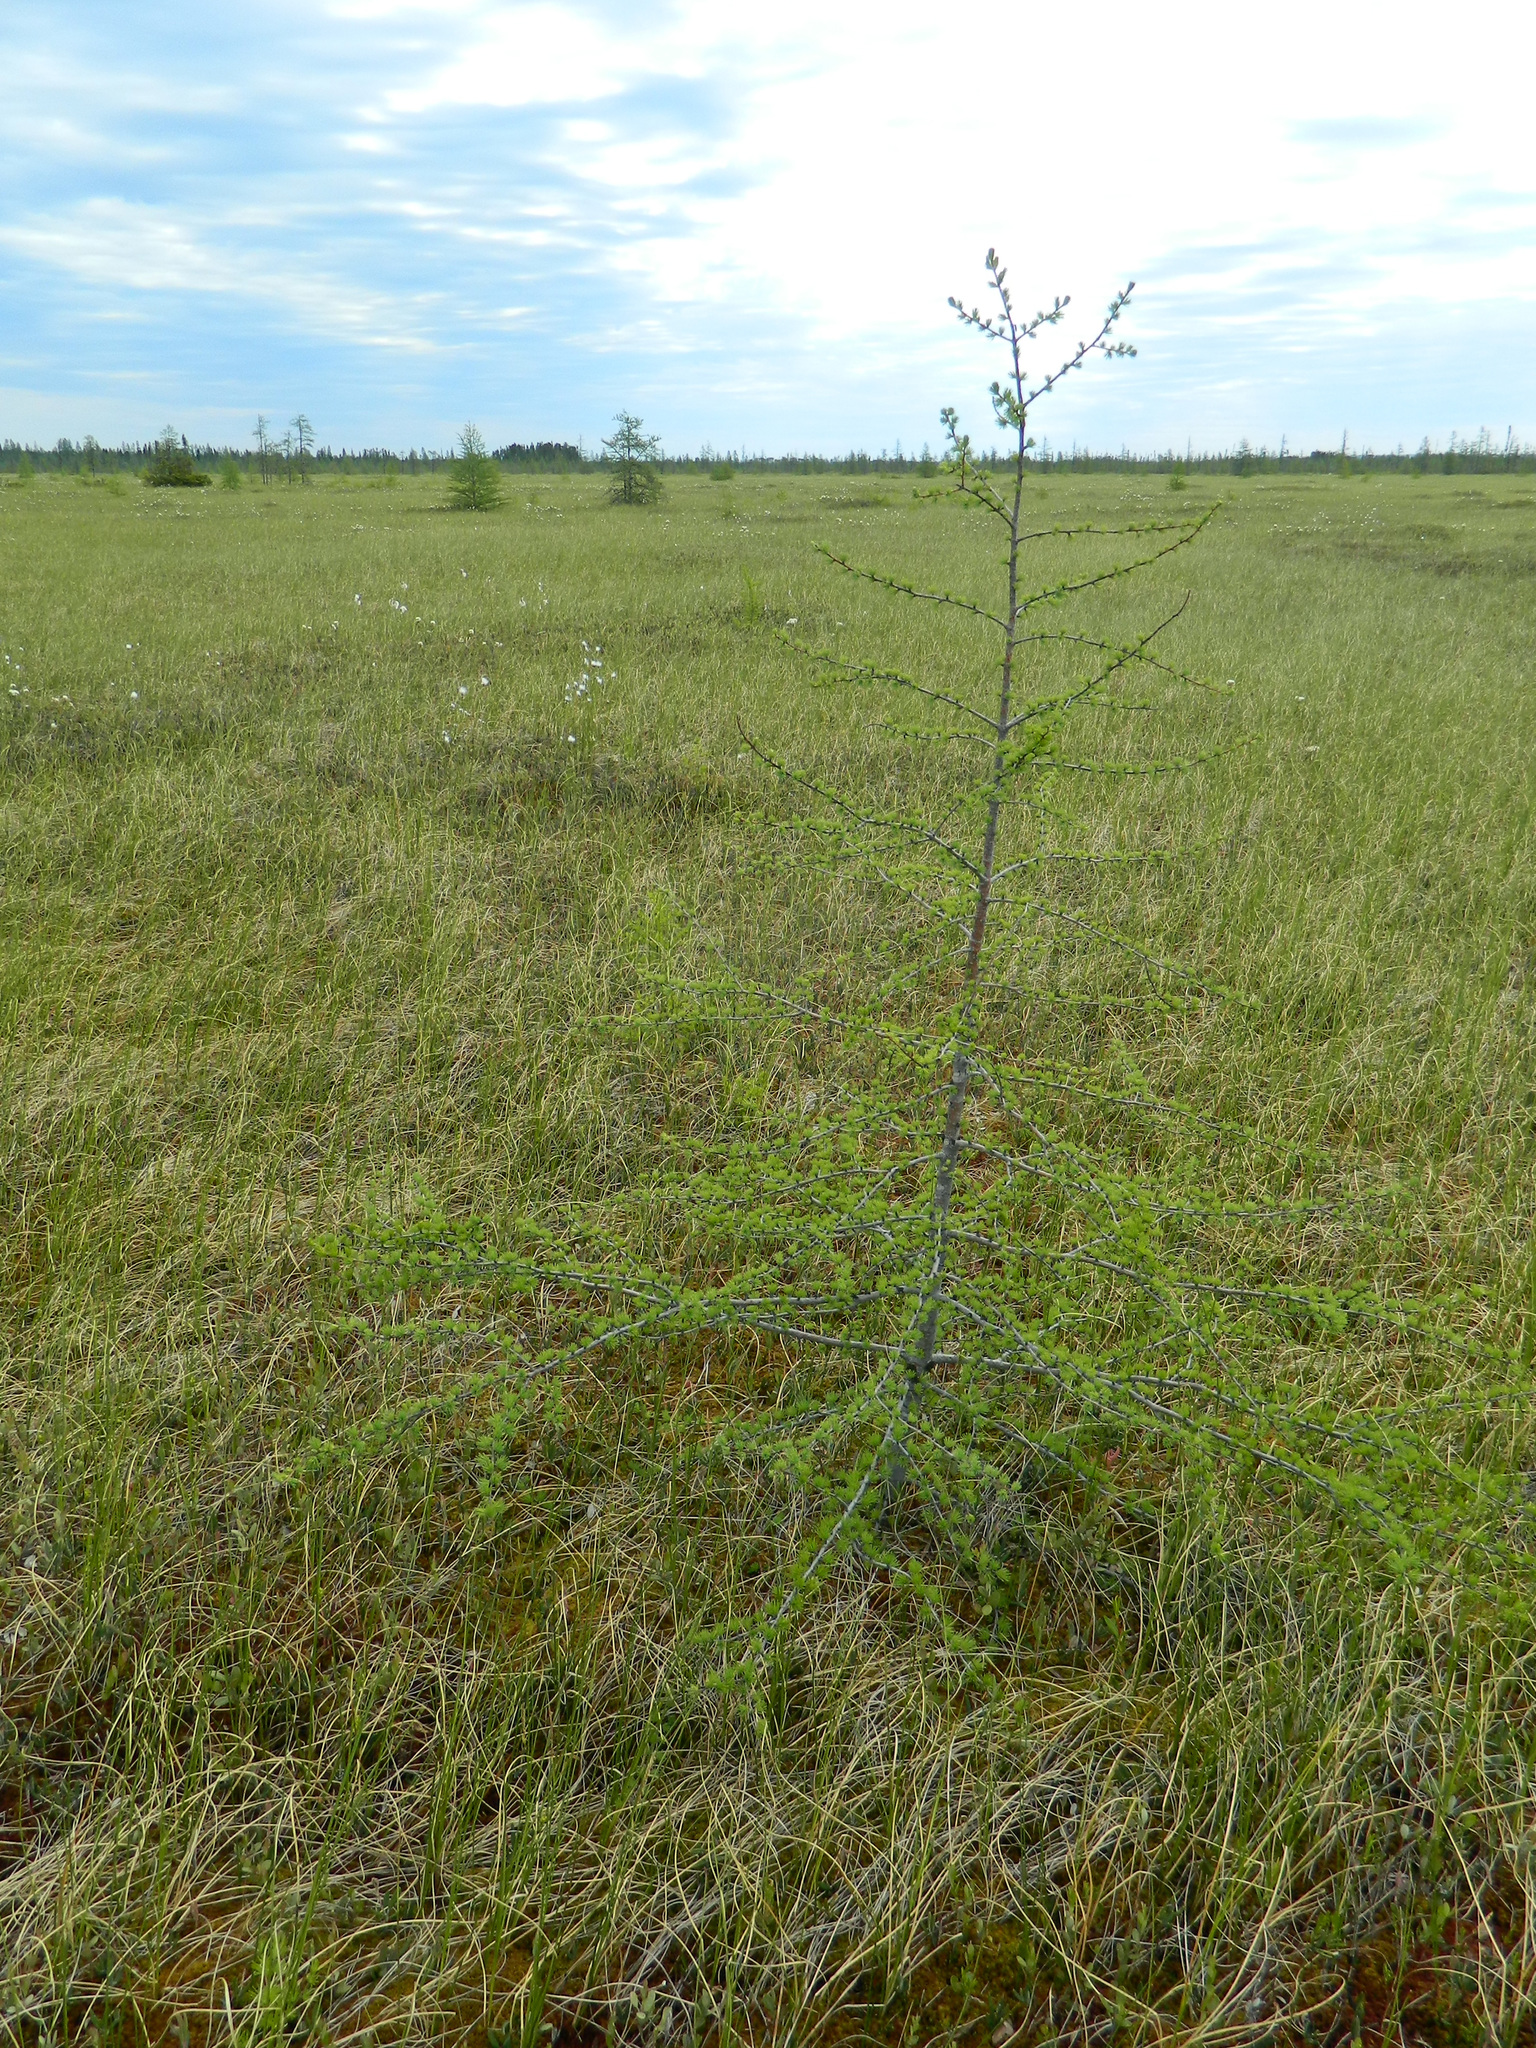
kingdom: Plantae
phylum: Tracheophyta
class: Pinopsida
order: Pinales
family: Pinaceae
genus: Larix
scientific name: Larix laricina
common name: American larch
